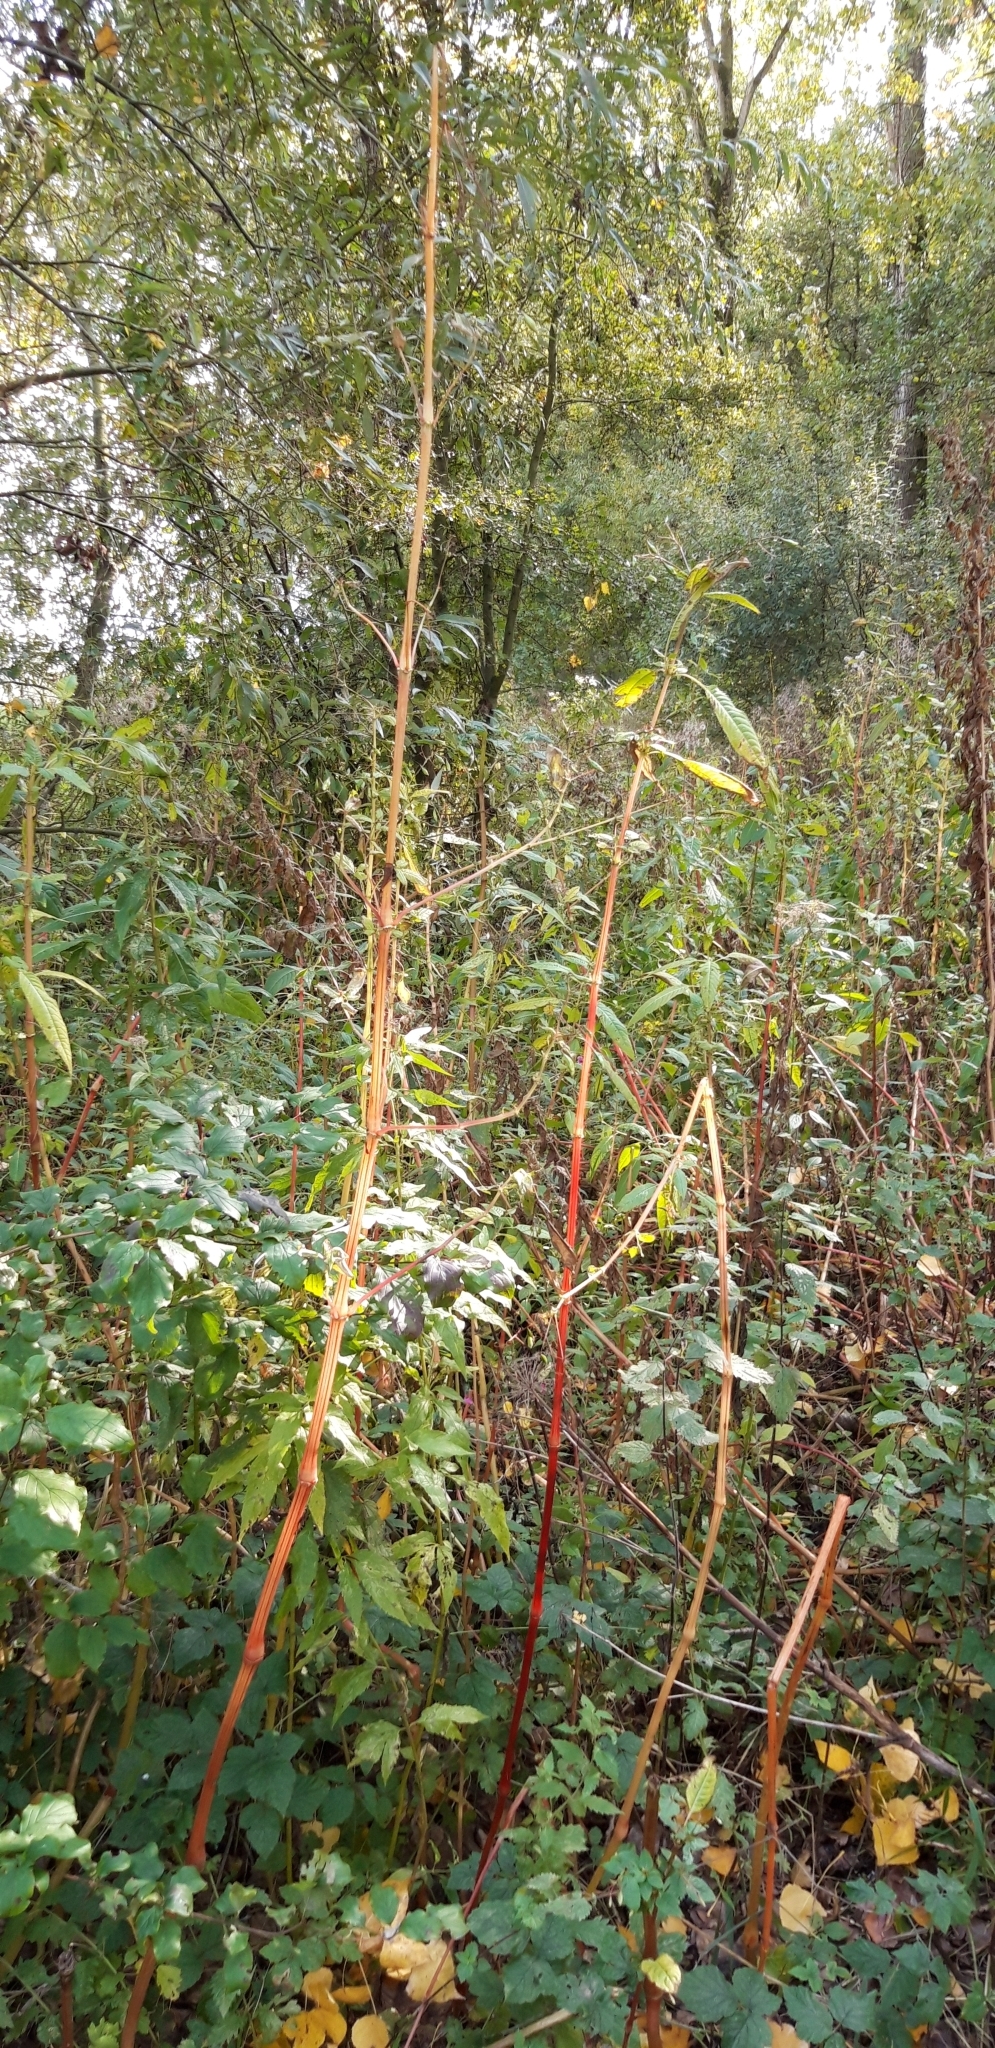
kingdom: Plantae
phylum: Tracheophyta
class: Magnoliopsida
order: Ericales
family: Balsaminaceae
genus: Impatiens
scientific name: Impatiens glandulifera
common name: Himalayan balsam
